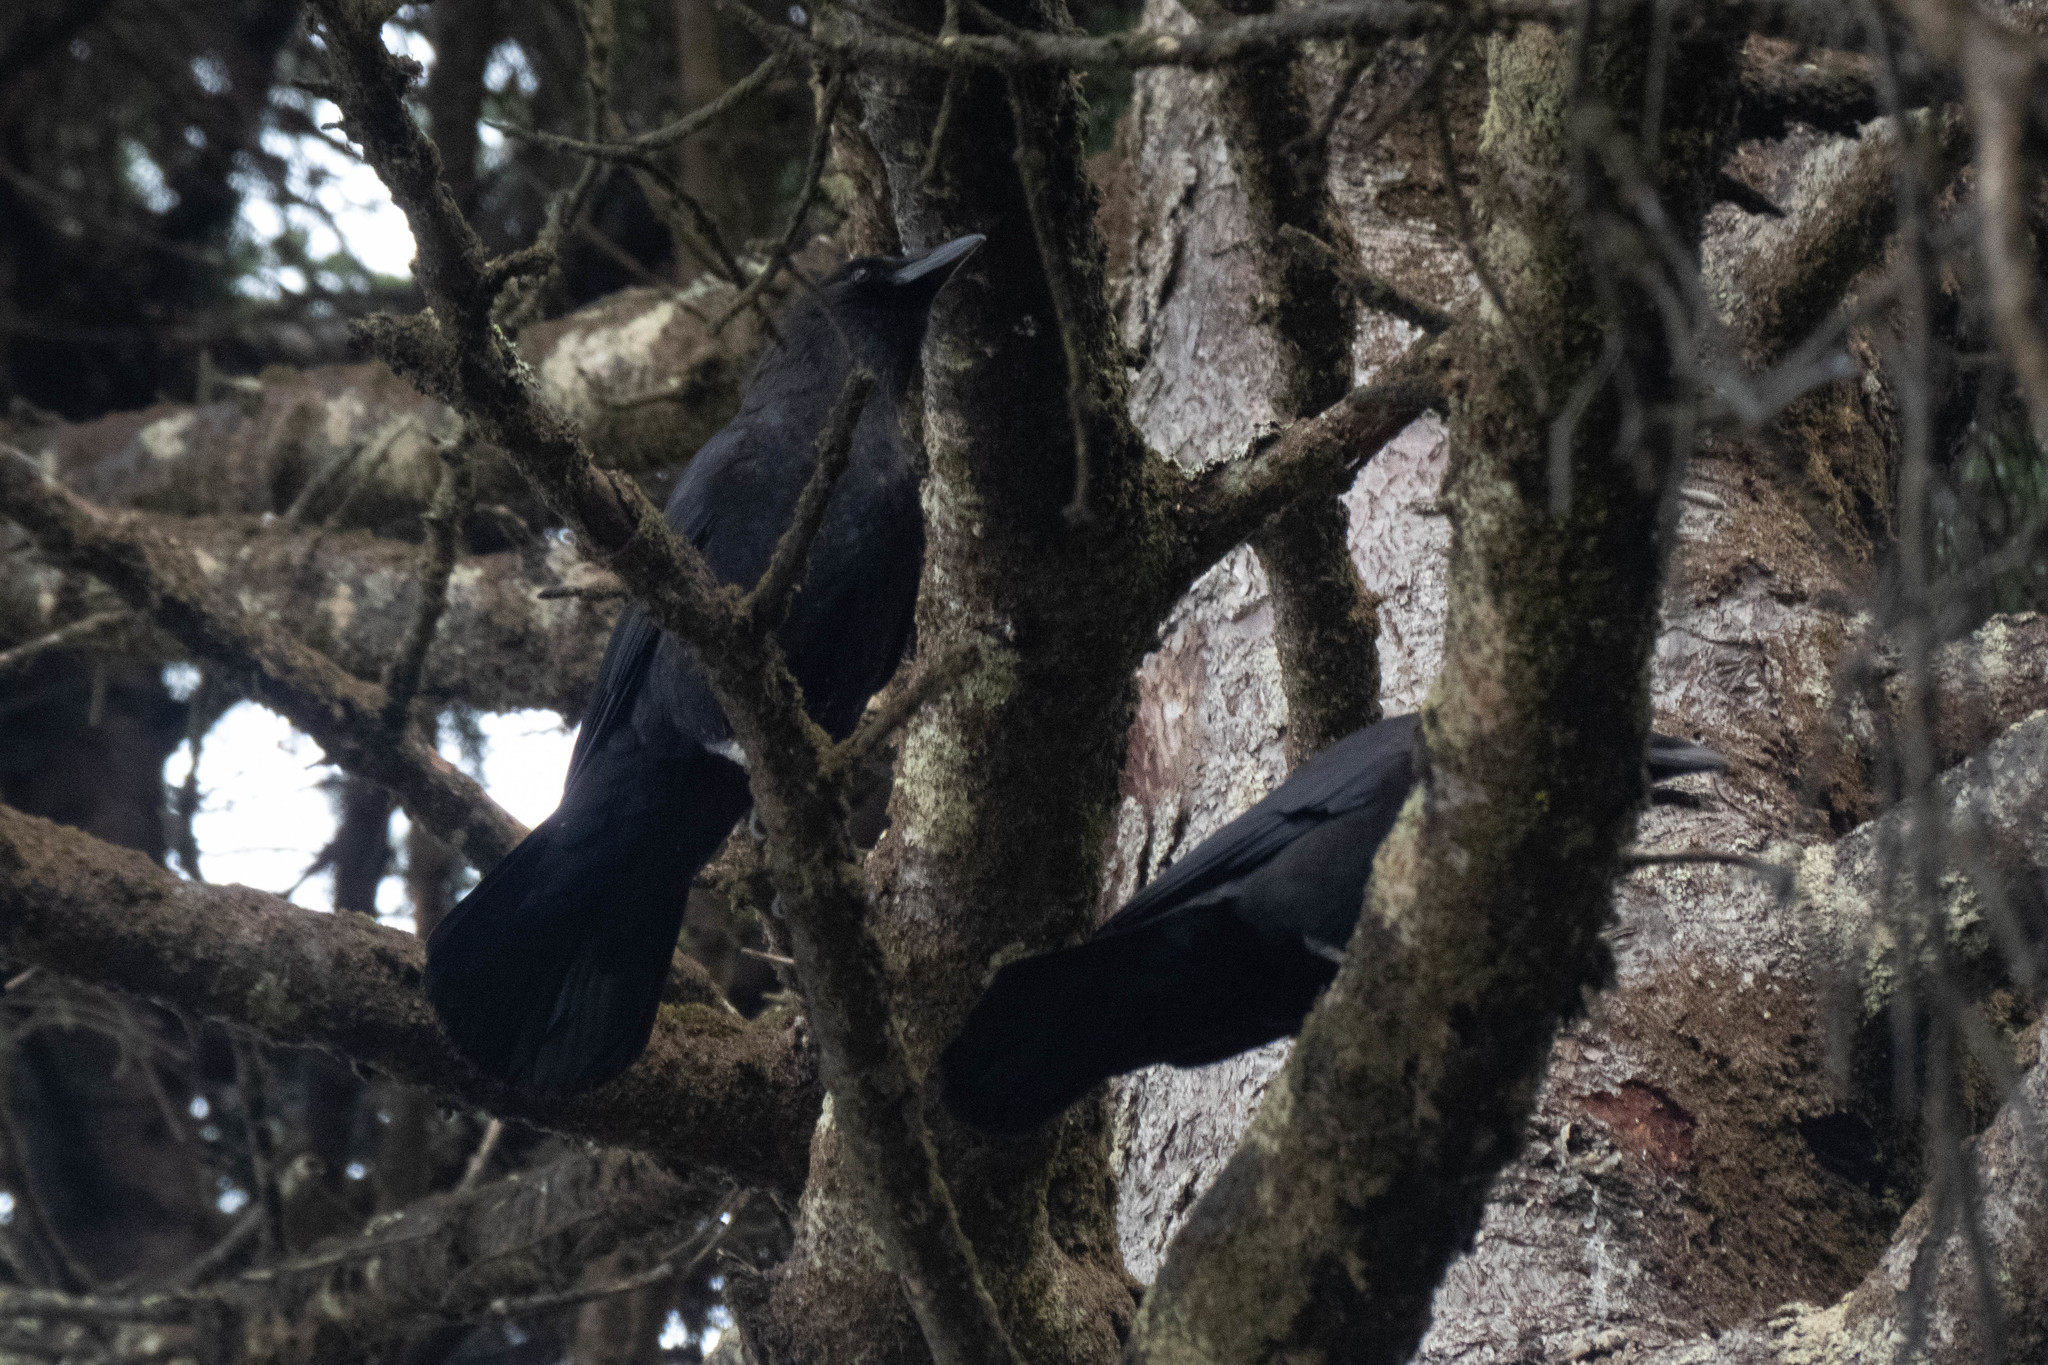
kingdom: Animalia
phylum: Chordata
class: Aves
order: Passeriformes
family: Corvidae
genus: Corvus
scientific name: Corvus brachyrhynchos
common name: American crow
